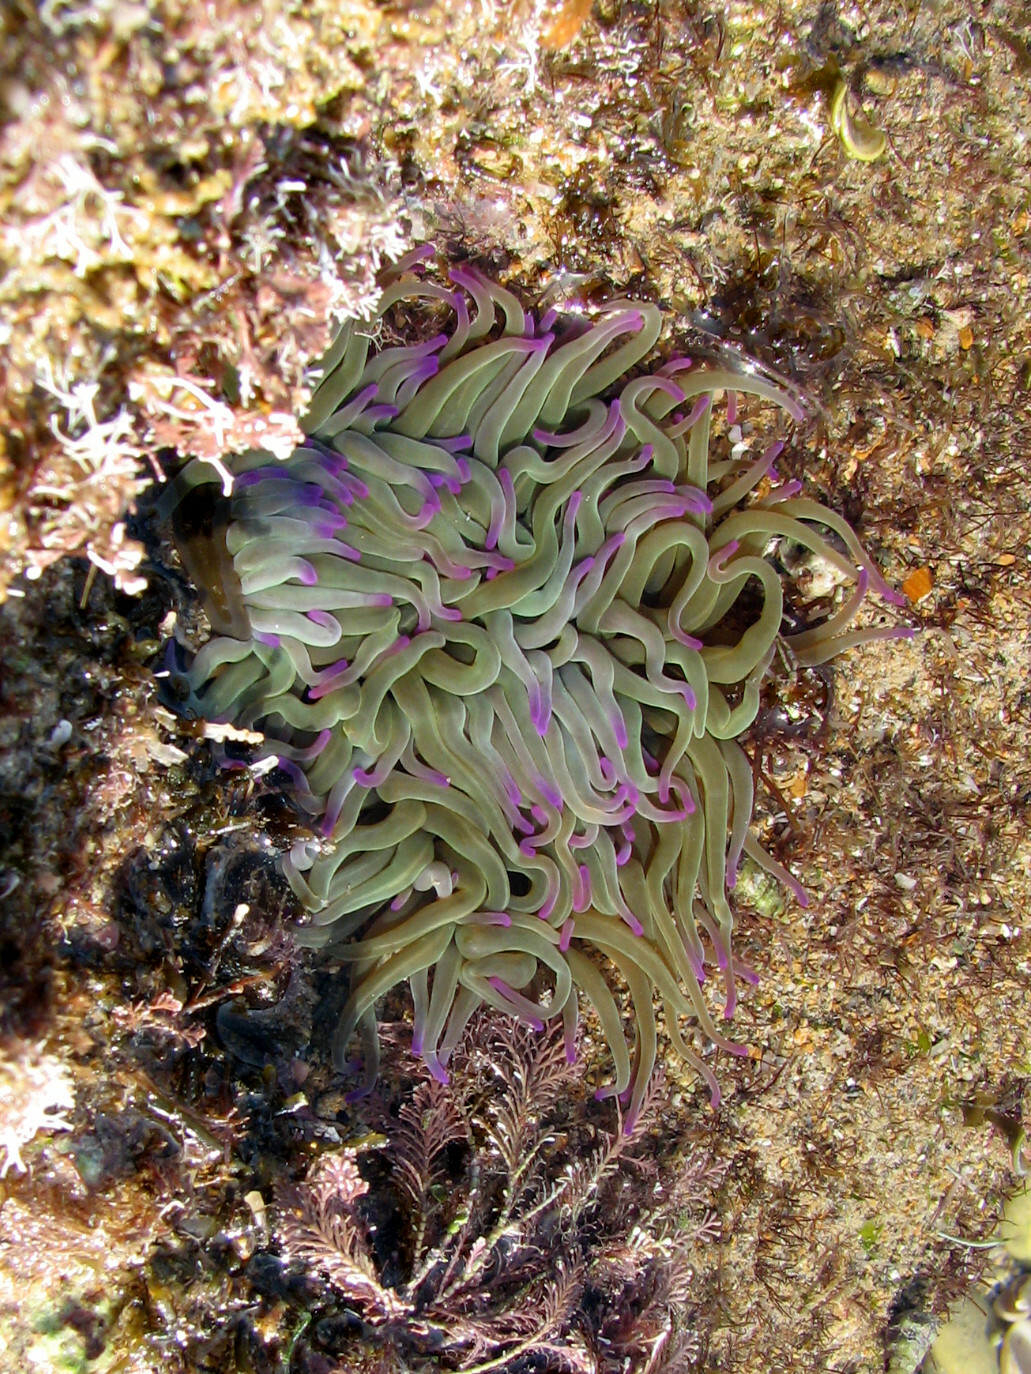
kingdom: Animalia
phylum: Cnidaria
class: Anthozoa
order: Actiniaria
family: Actiniidae
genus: Anemonia
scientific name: Anemonia viridis
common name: Snakelocks anemone
